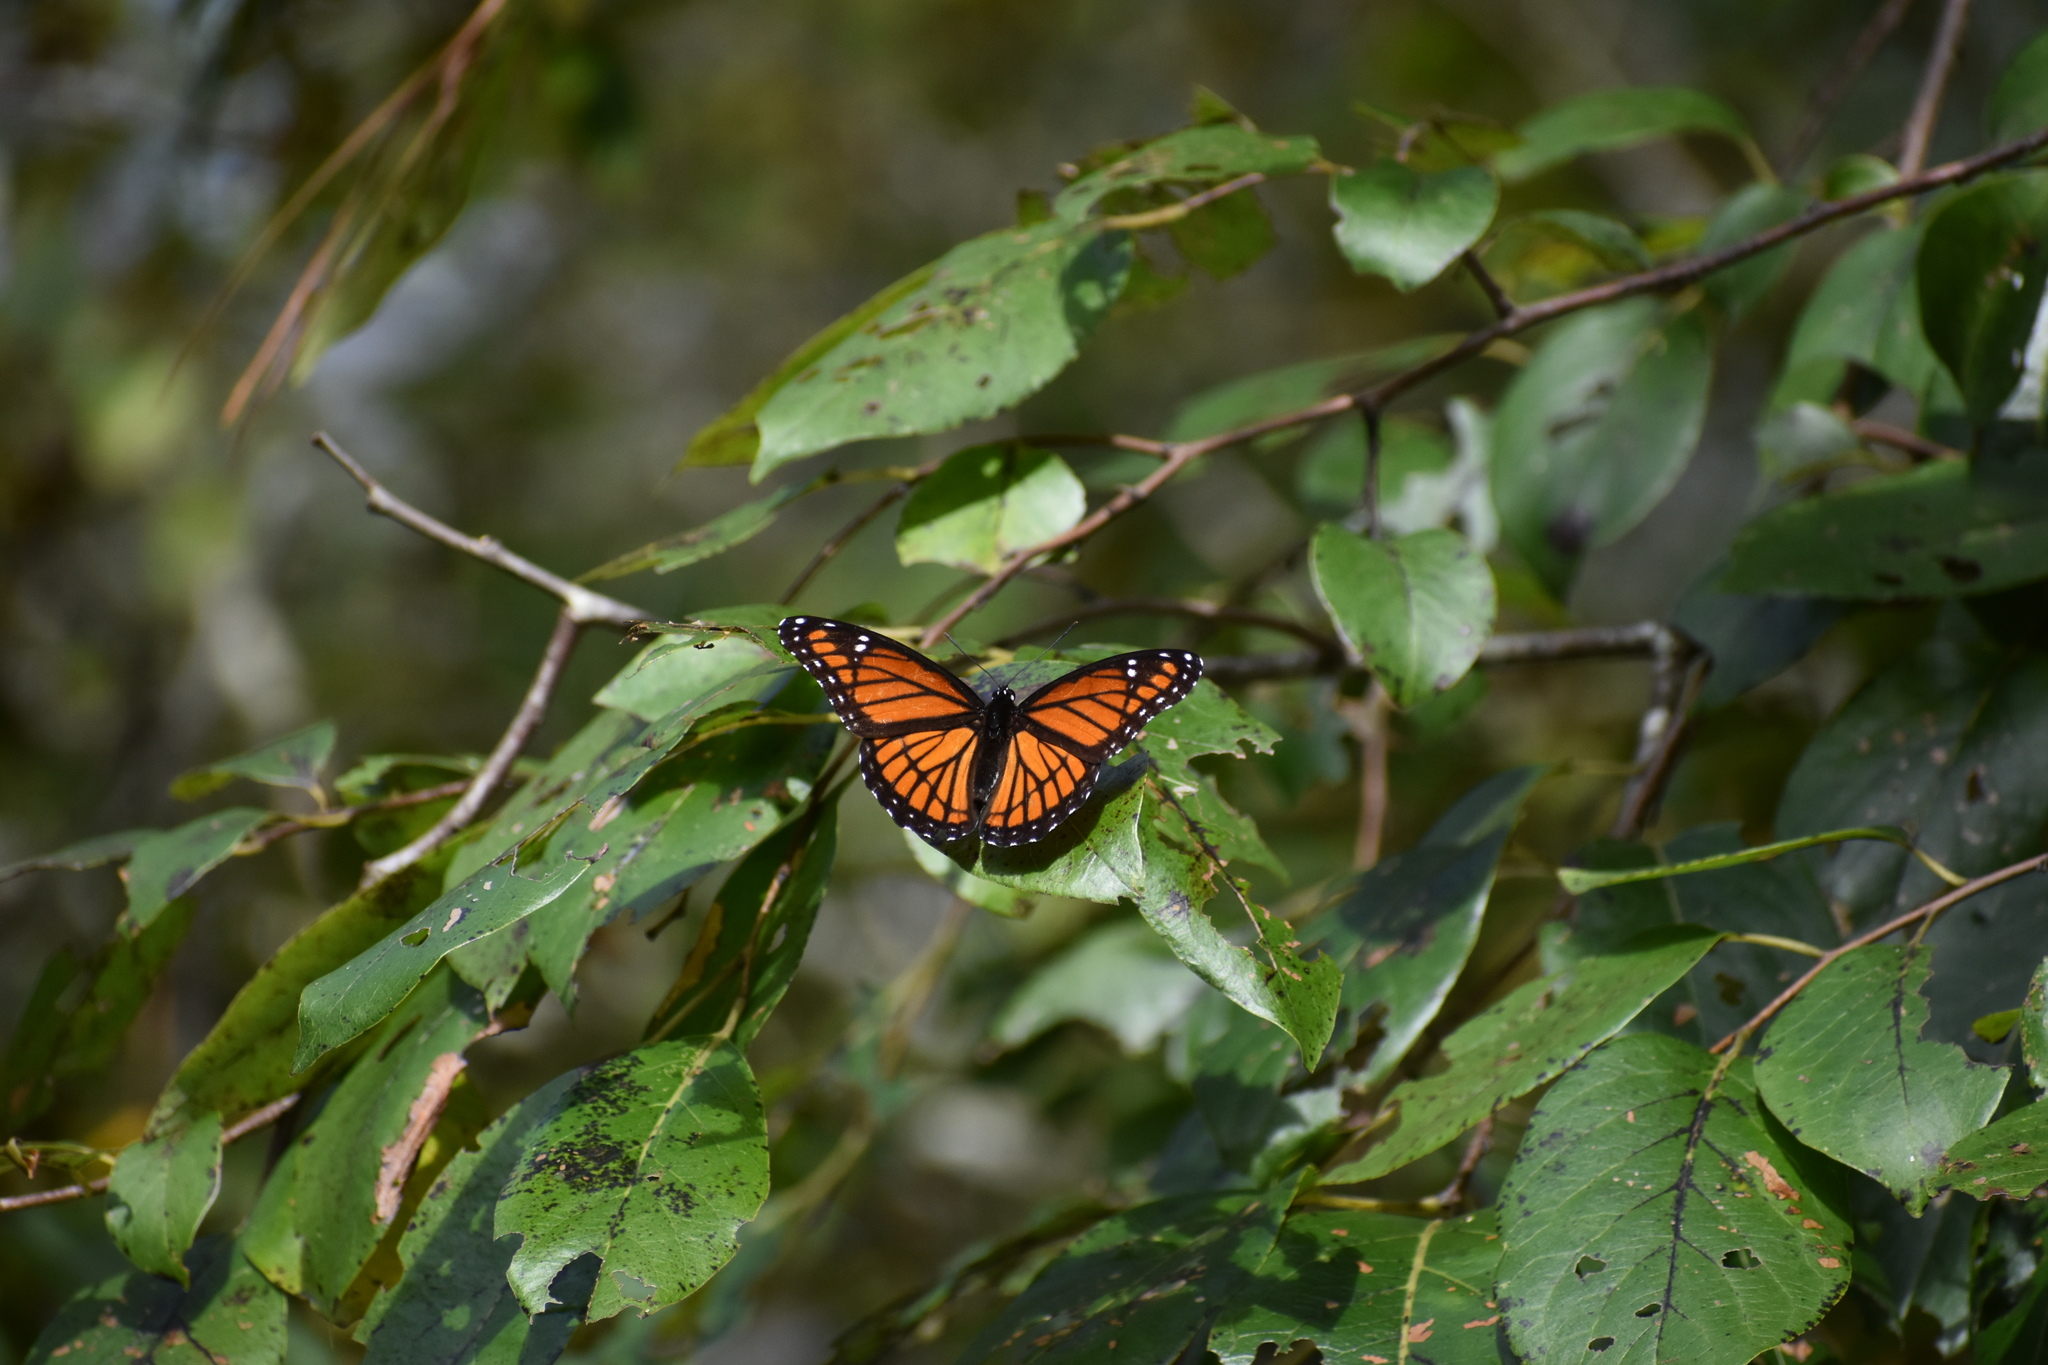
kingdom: Animalia
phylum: Arthropoda
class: Insecta
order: Lepidoptera
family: Nymphalidae
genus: Limenitis
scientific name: Limenitis archippus
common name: Viceroy
